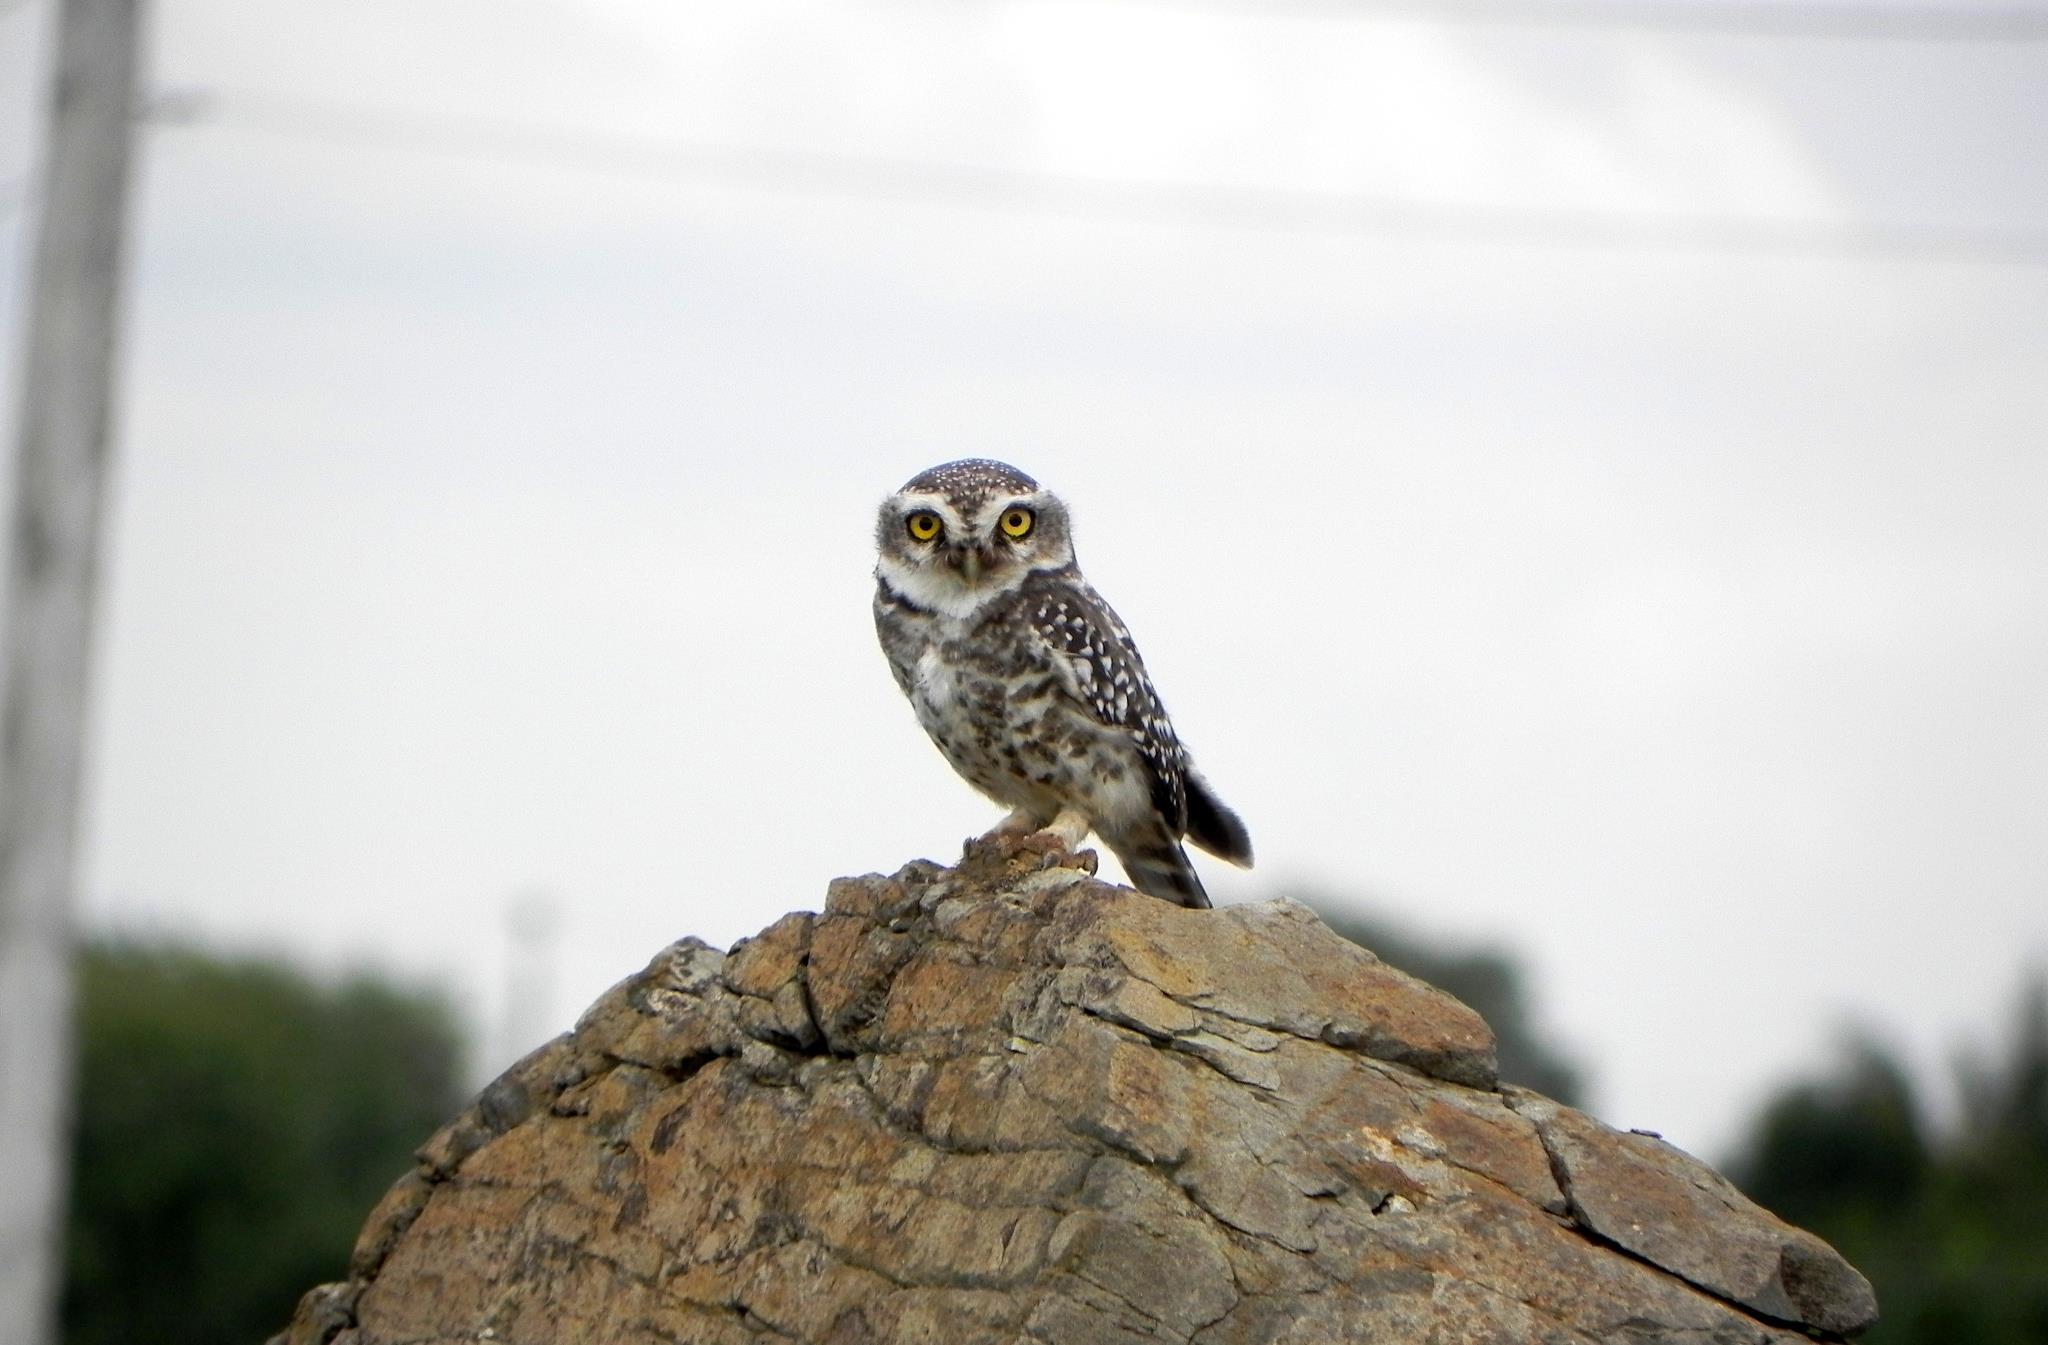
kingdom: Animalia
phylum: Chordata
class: Aves
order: Strigiformes
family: Strigidae
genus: Athene
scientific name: Athene brama
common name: Spotted owlet
